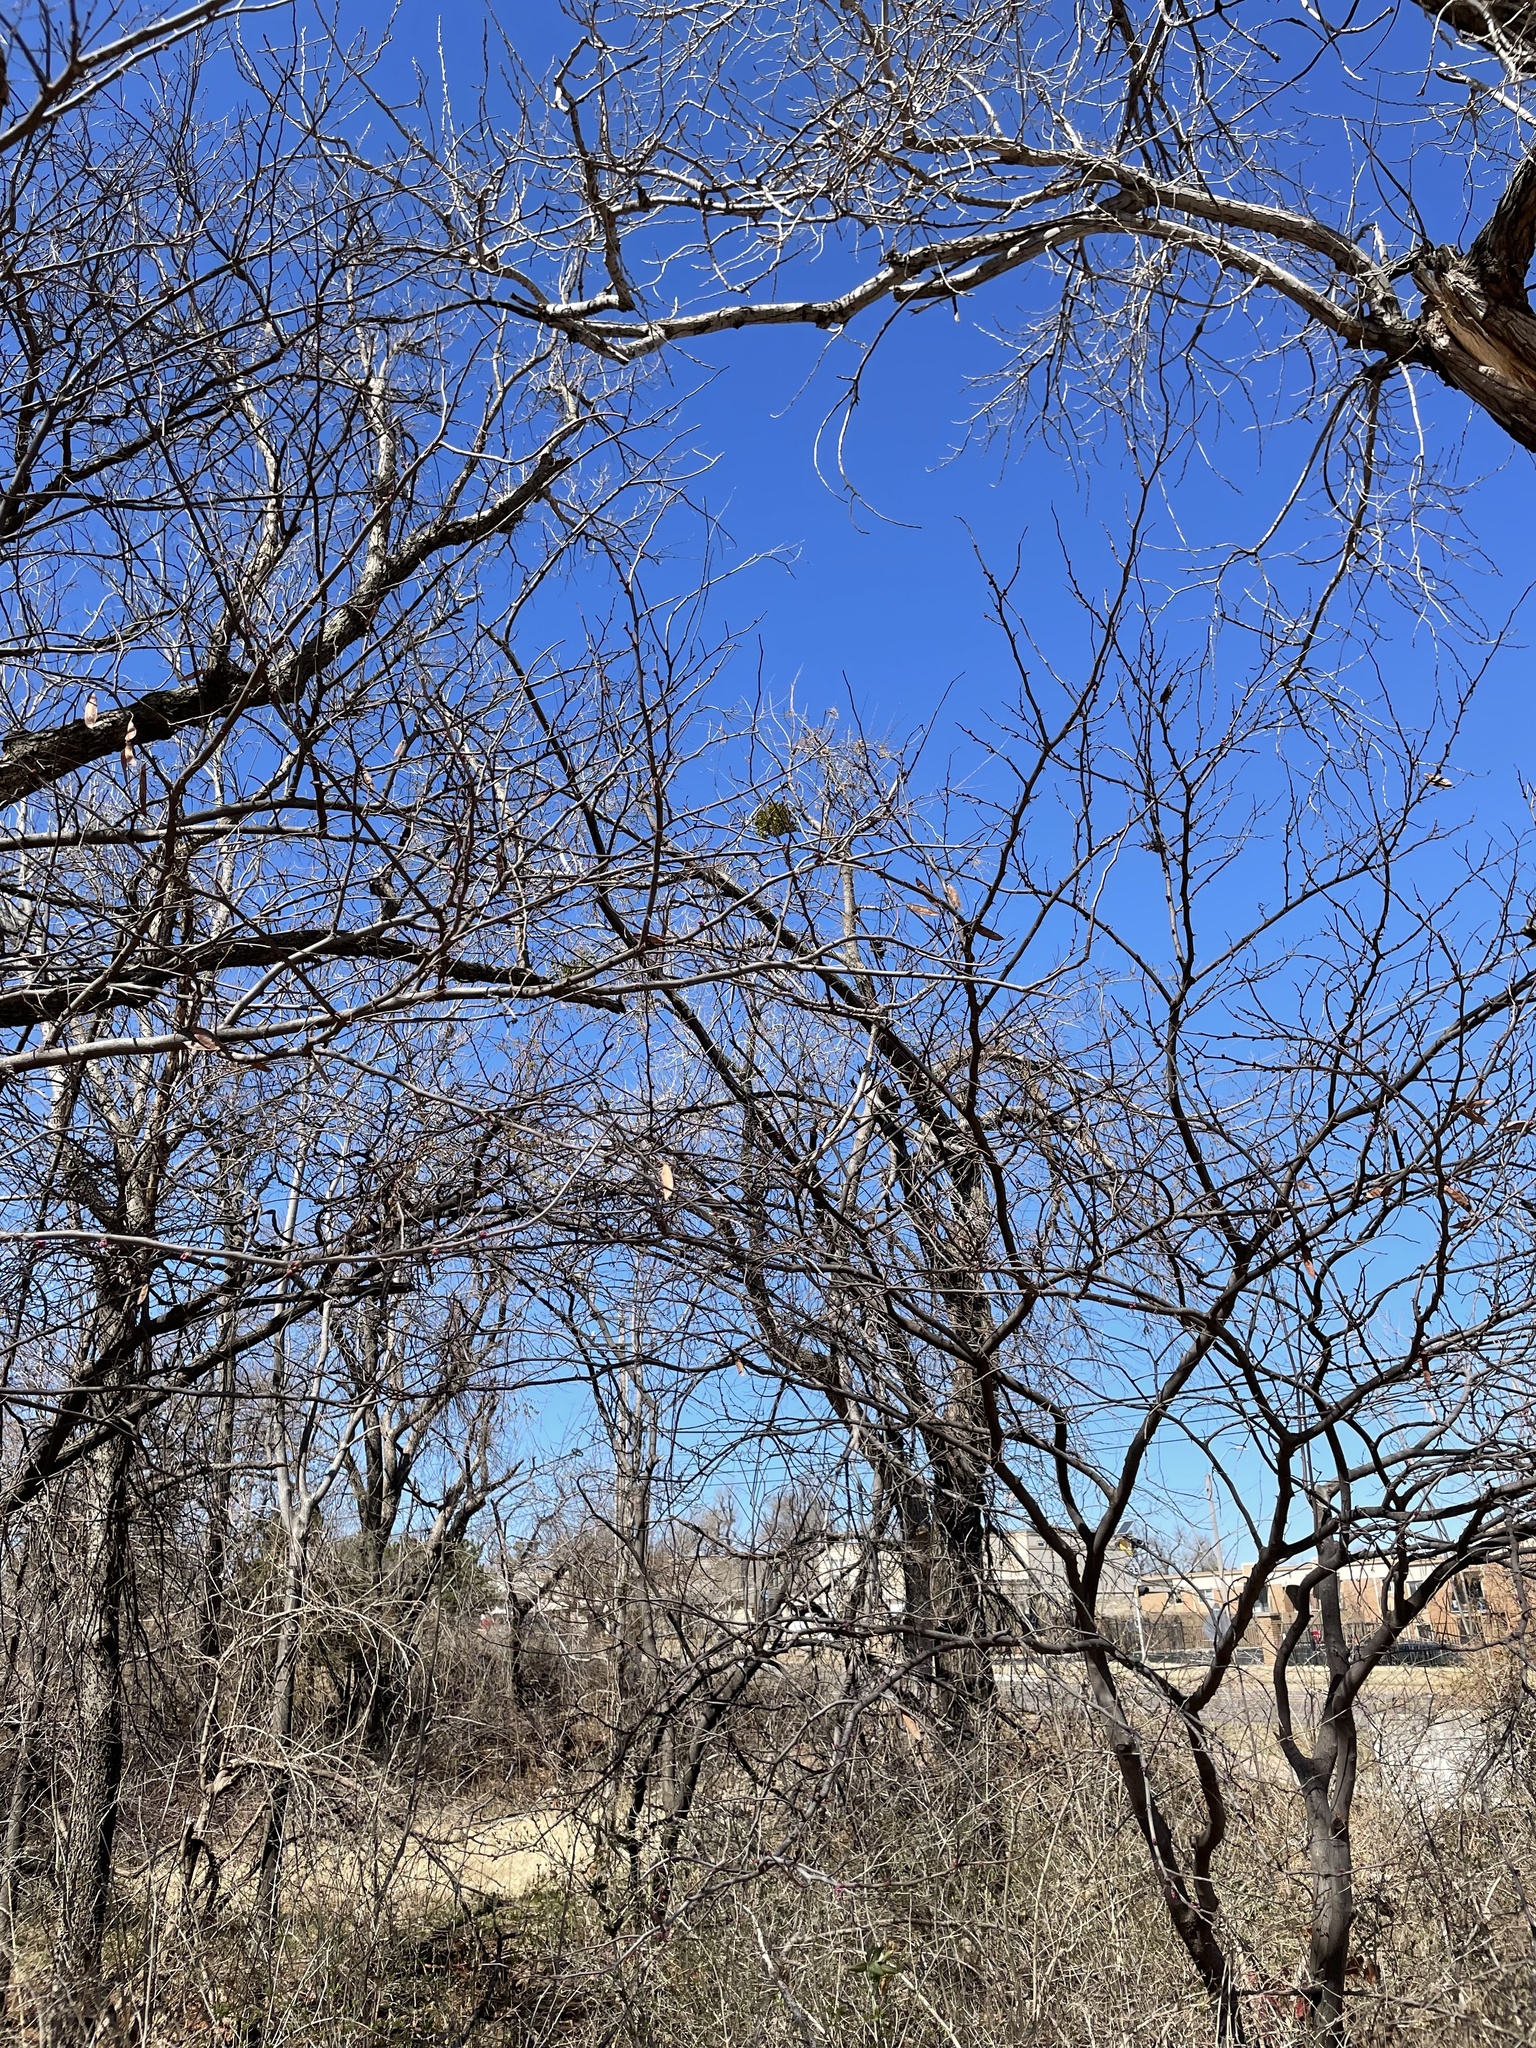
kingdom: Plantae
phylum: Tracheophyta
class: Magnoliopsida
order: Santalales
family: Viscaceae
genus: Phoradendron
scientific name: Phoradendron leucarpum
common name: Pacific mistletoe
